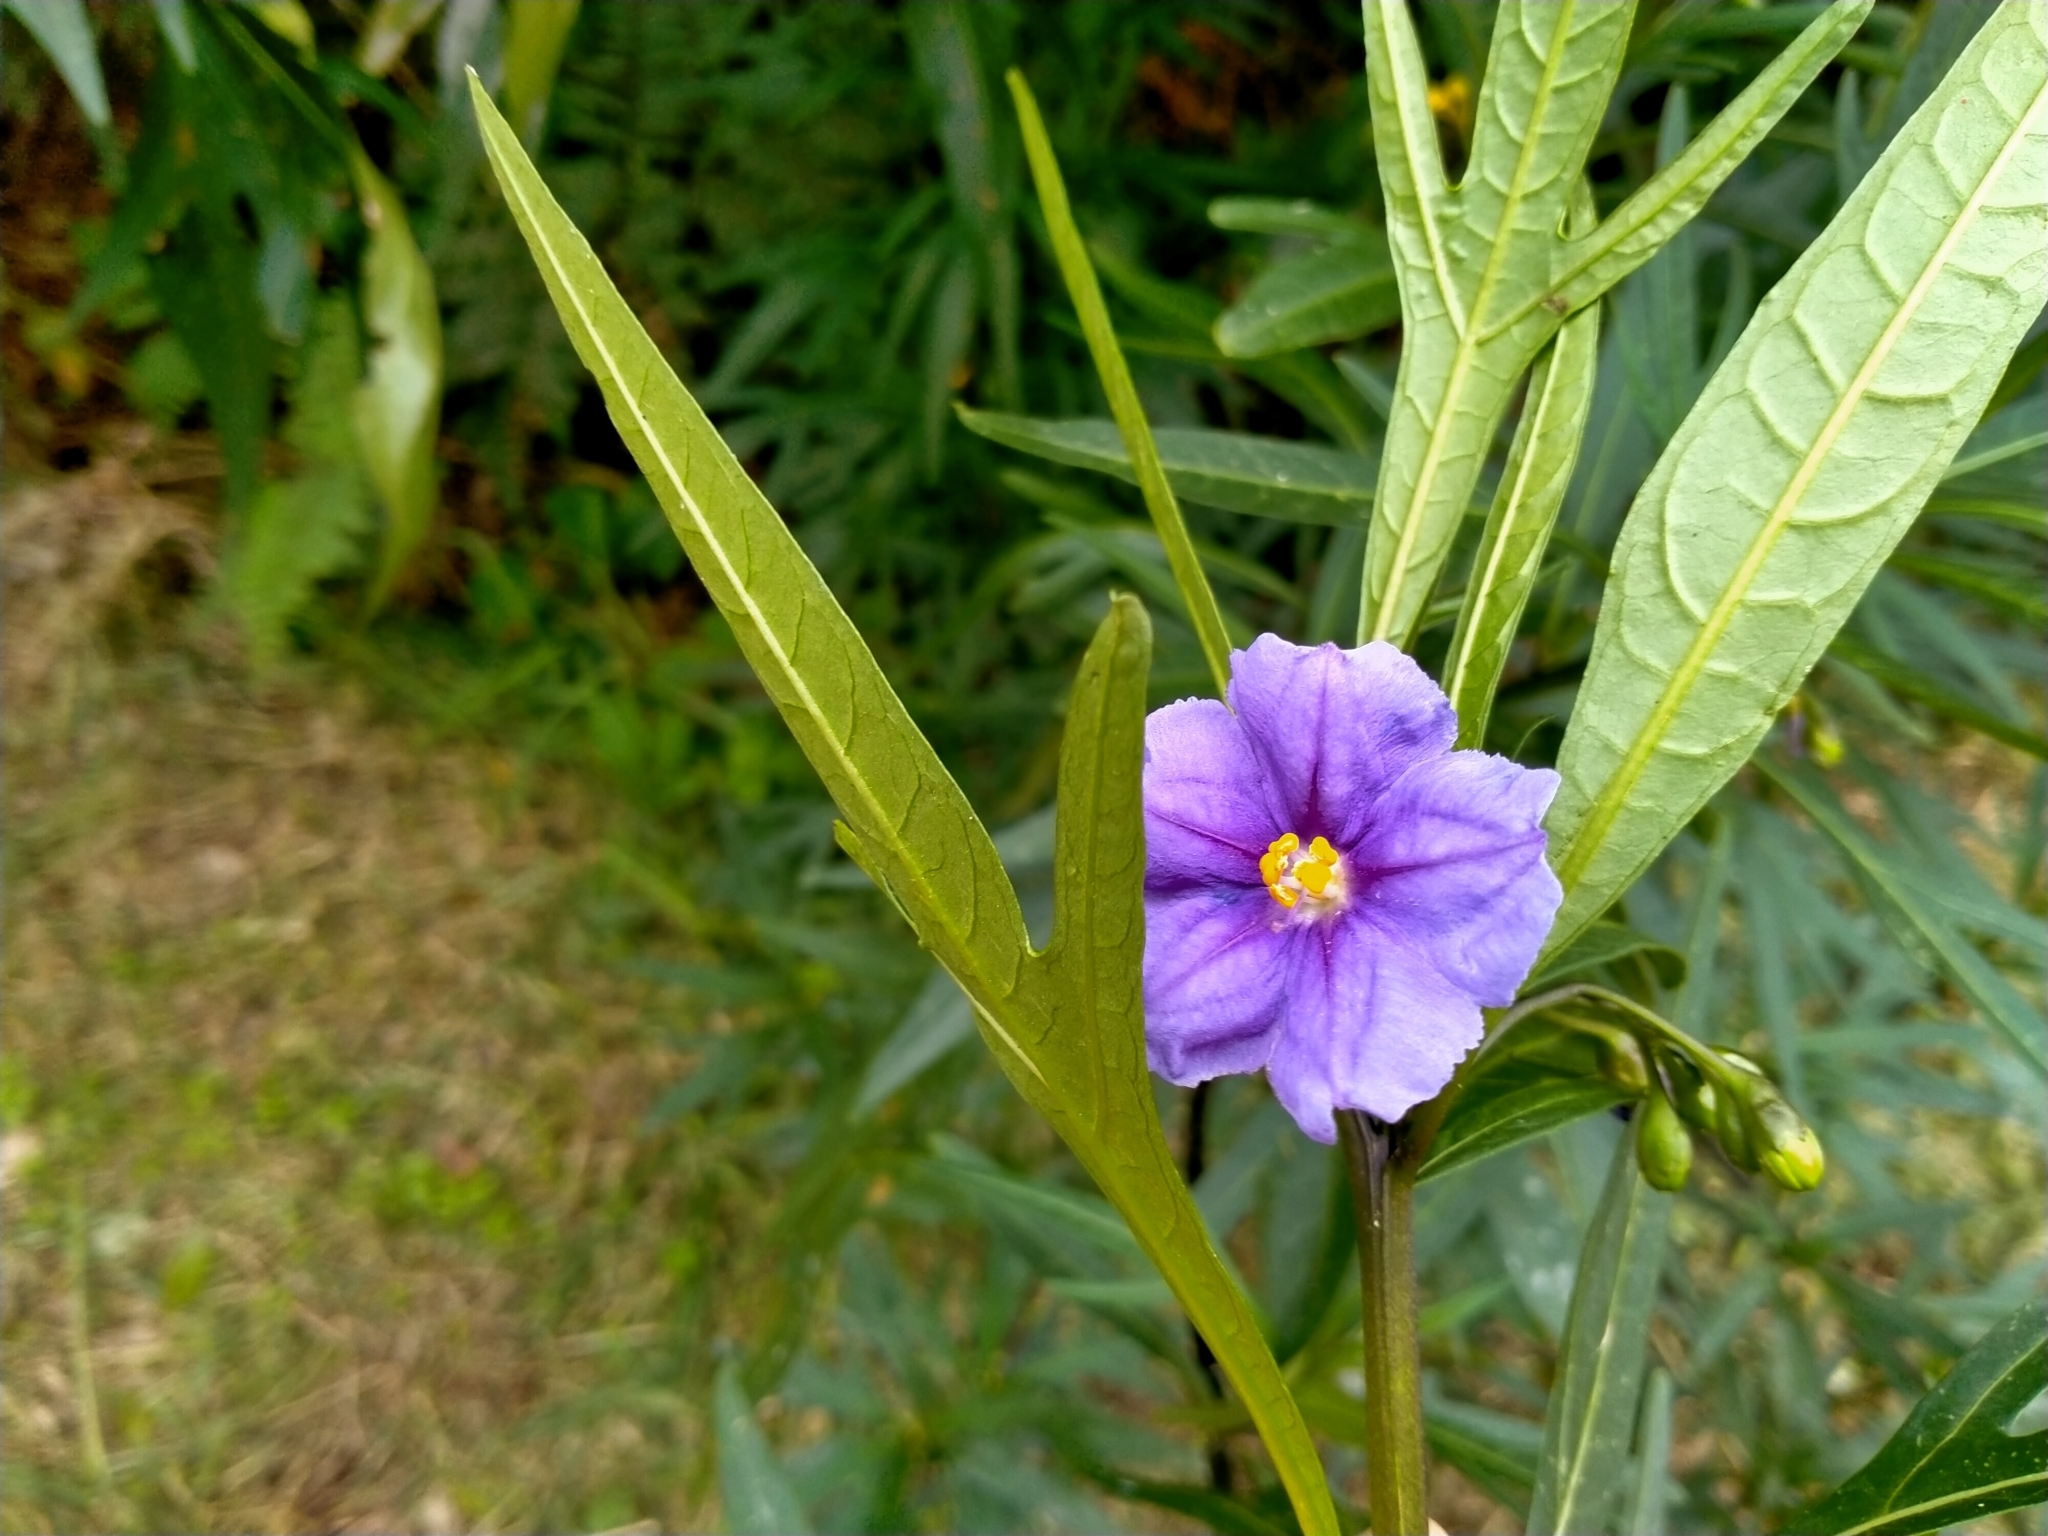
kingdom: Plantae
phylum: Tracheophyta
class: Magnoliopsida
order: Solanales
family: Solanaceae
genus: Solanum
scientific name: Solanum laciniatum
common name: Kangaroo-apple
